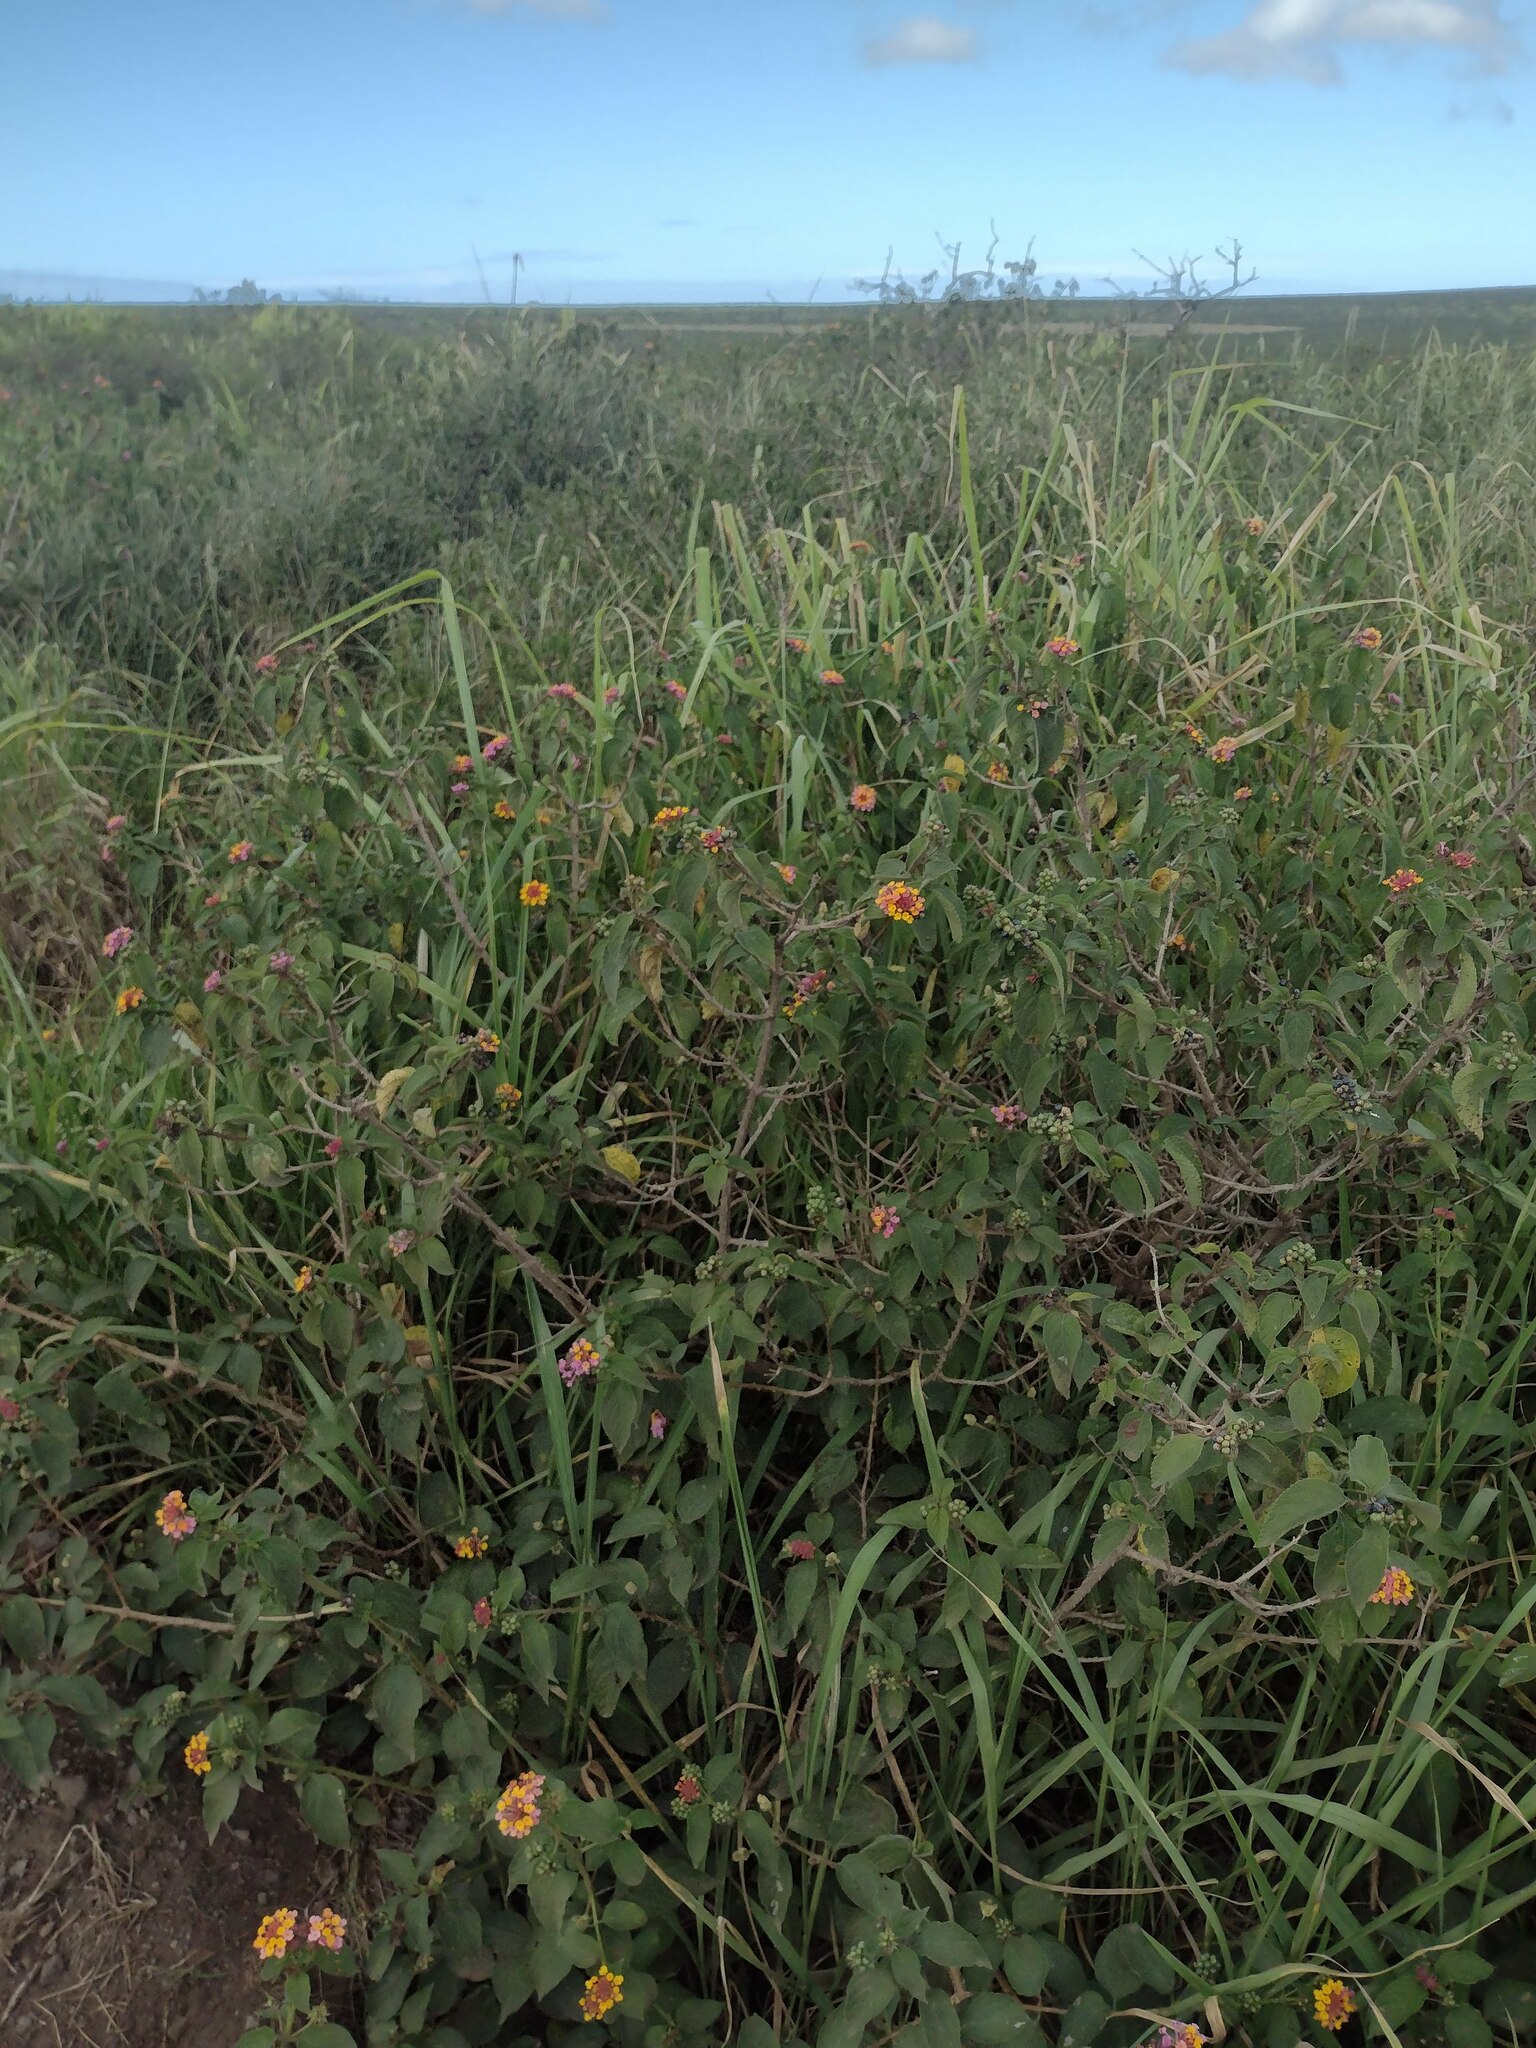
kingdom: Plantae
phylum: Tracheophyta
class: Magnoliopsida
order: Lamiales
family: Verbenaceae
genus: Lantana
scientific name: Lantana camara
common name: Lantana
